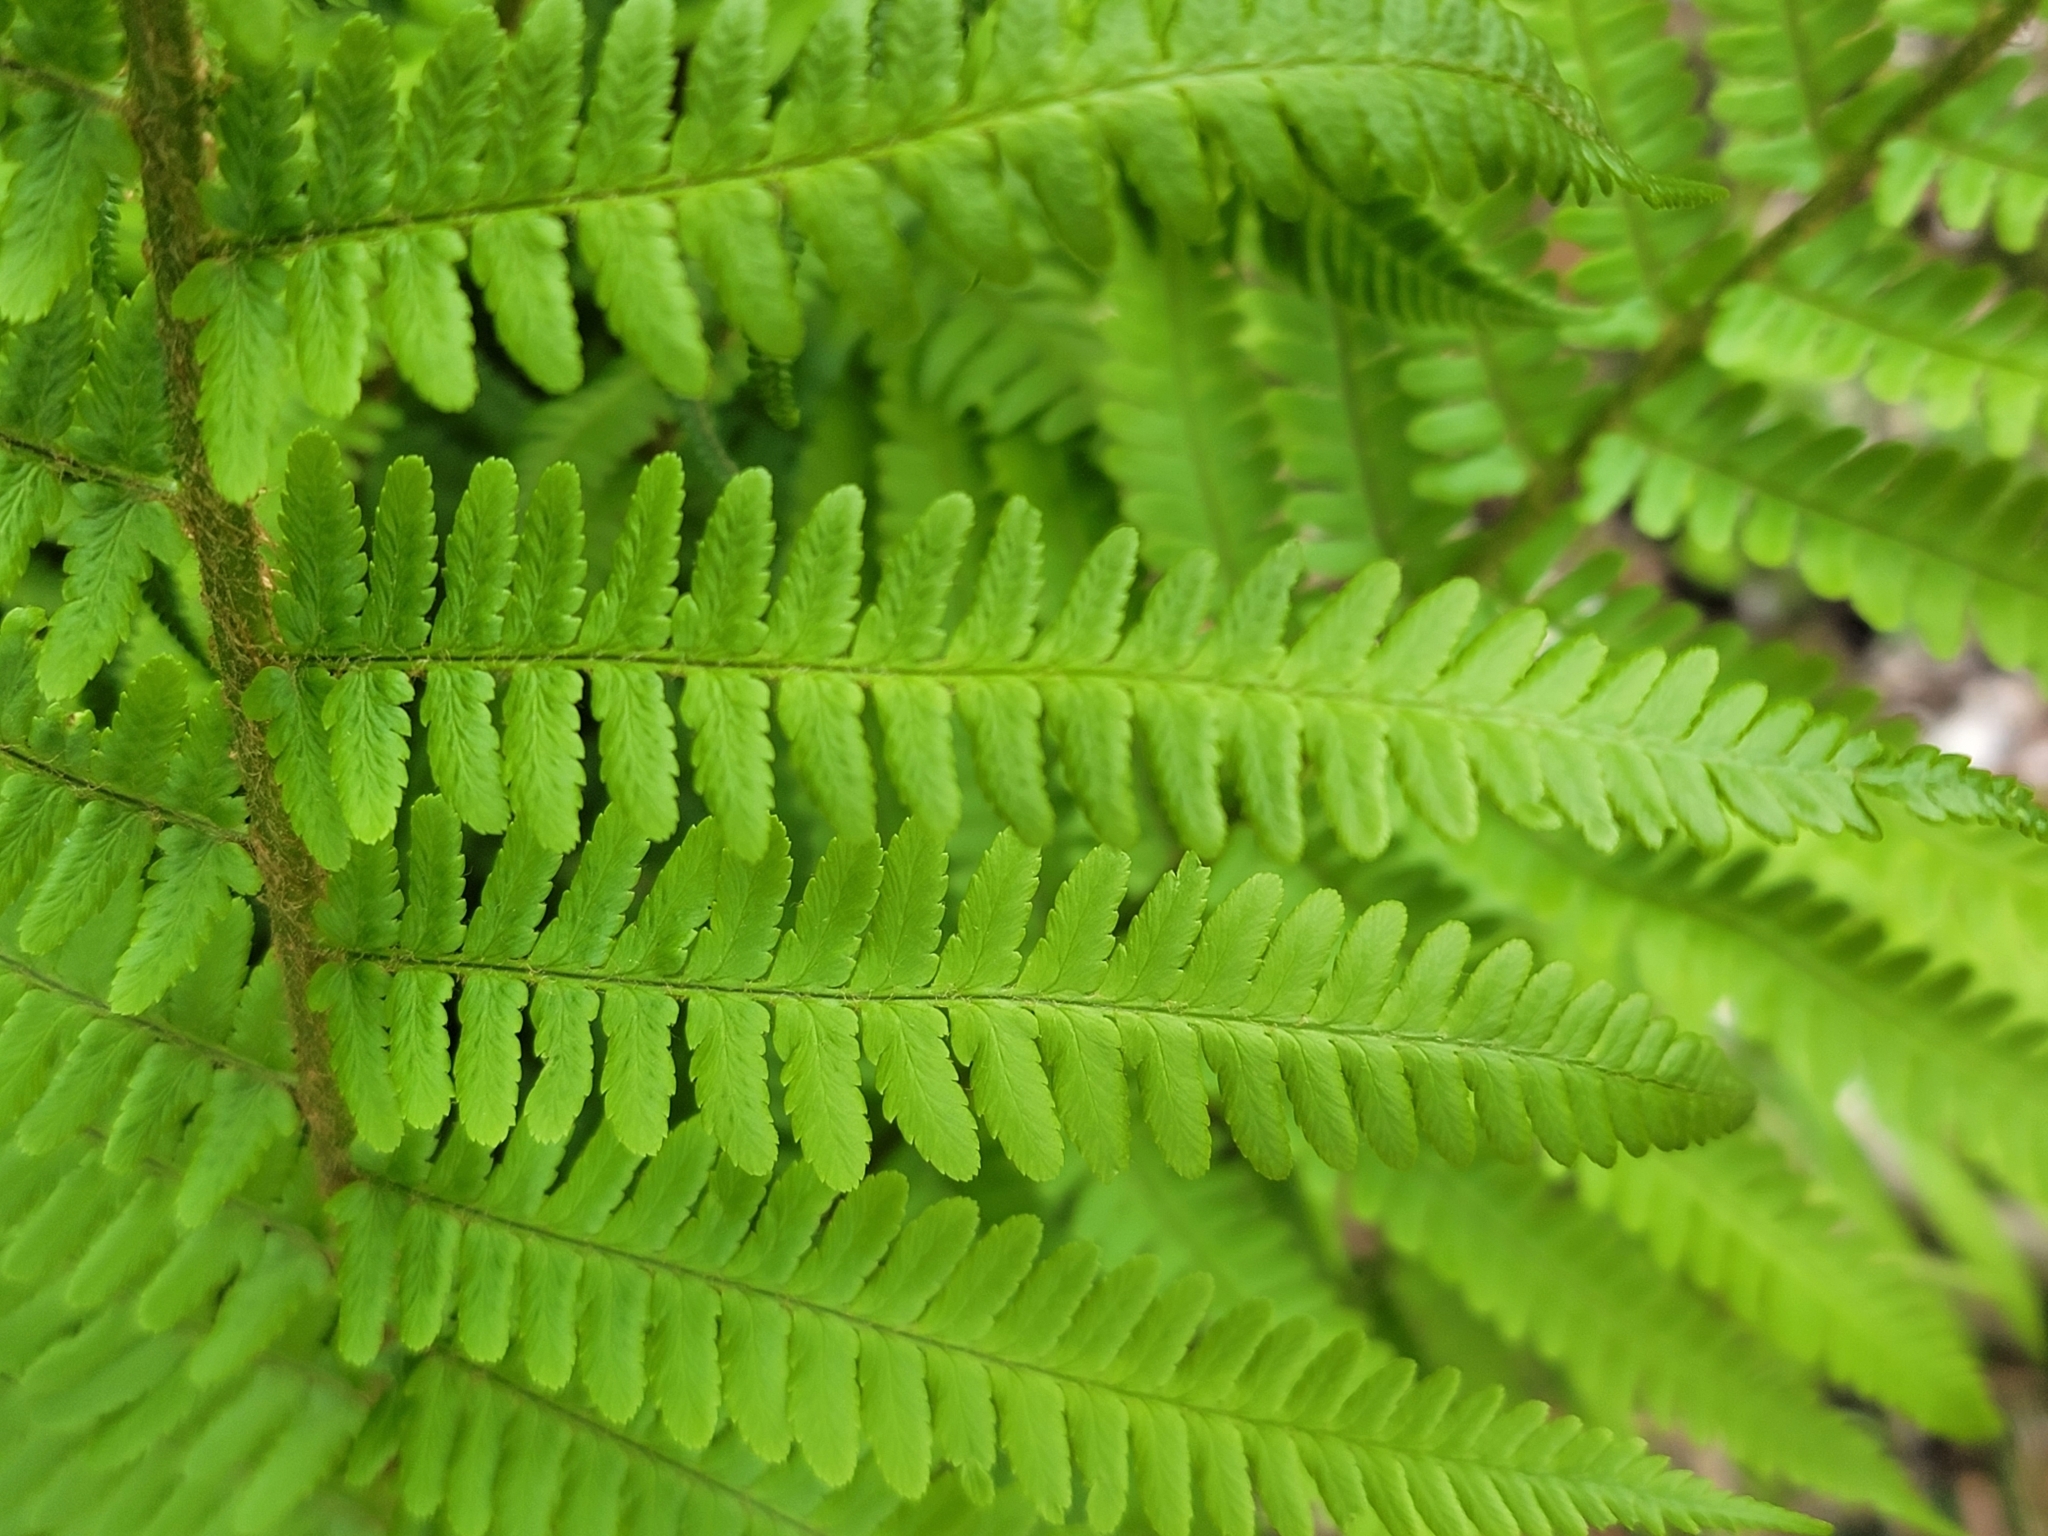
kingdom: Plantae
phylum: Tracheophyta
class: Polypodiopsida
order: Polypodiales
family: Dryopteridaceae
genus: Dryopteris
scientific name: Dryopteris filix-mas
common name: Male fern
